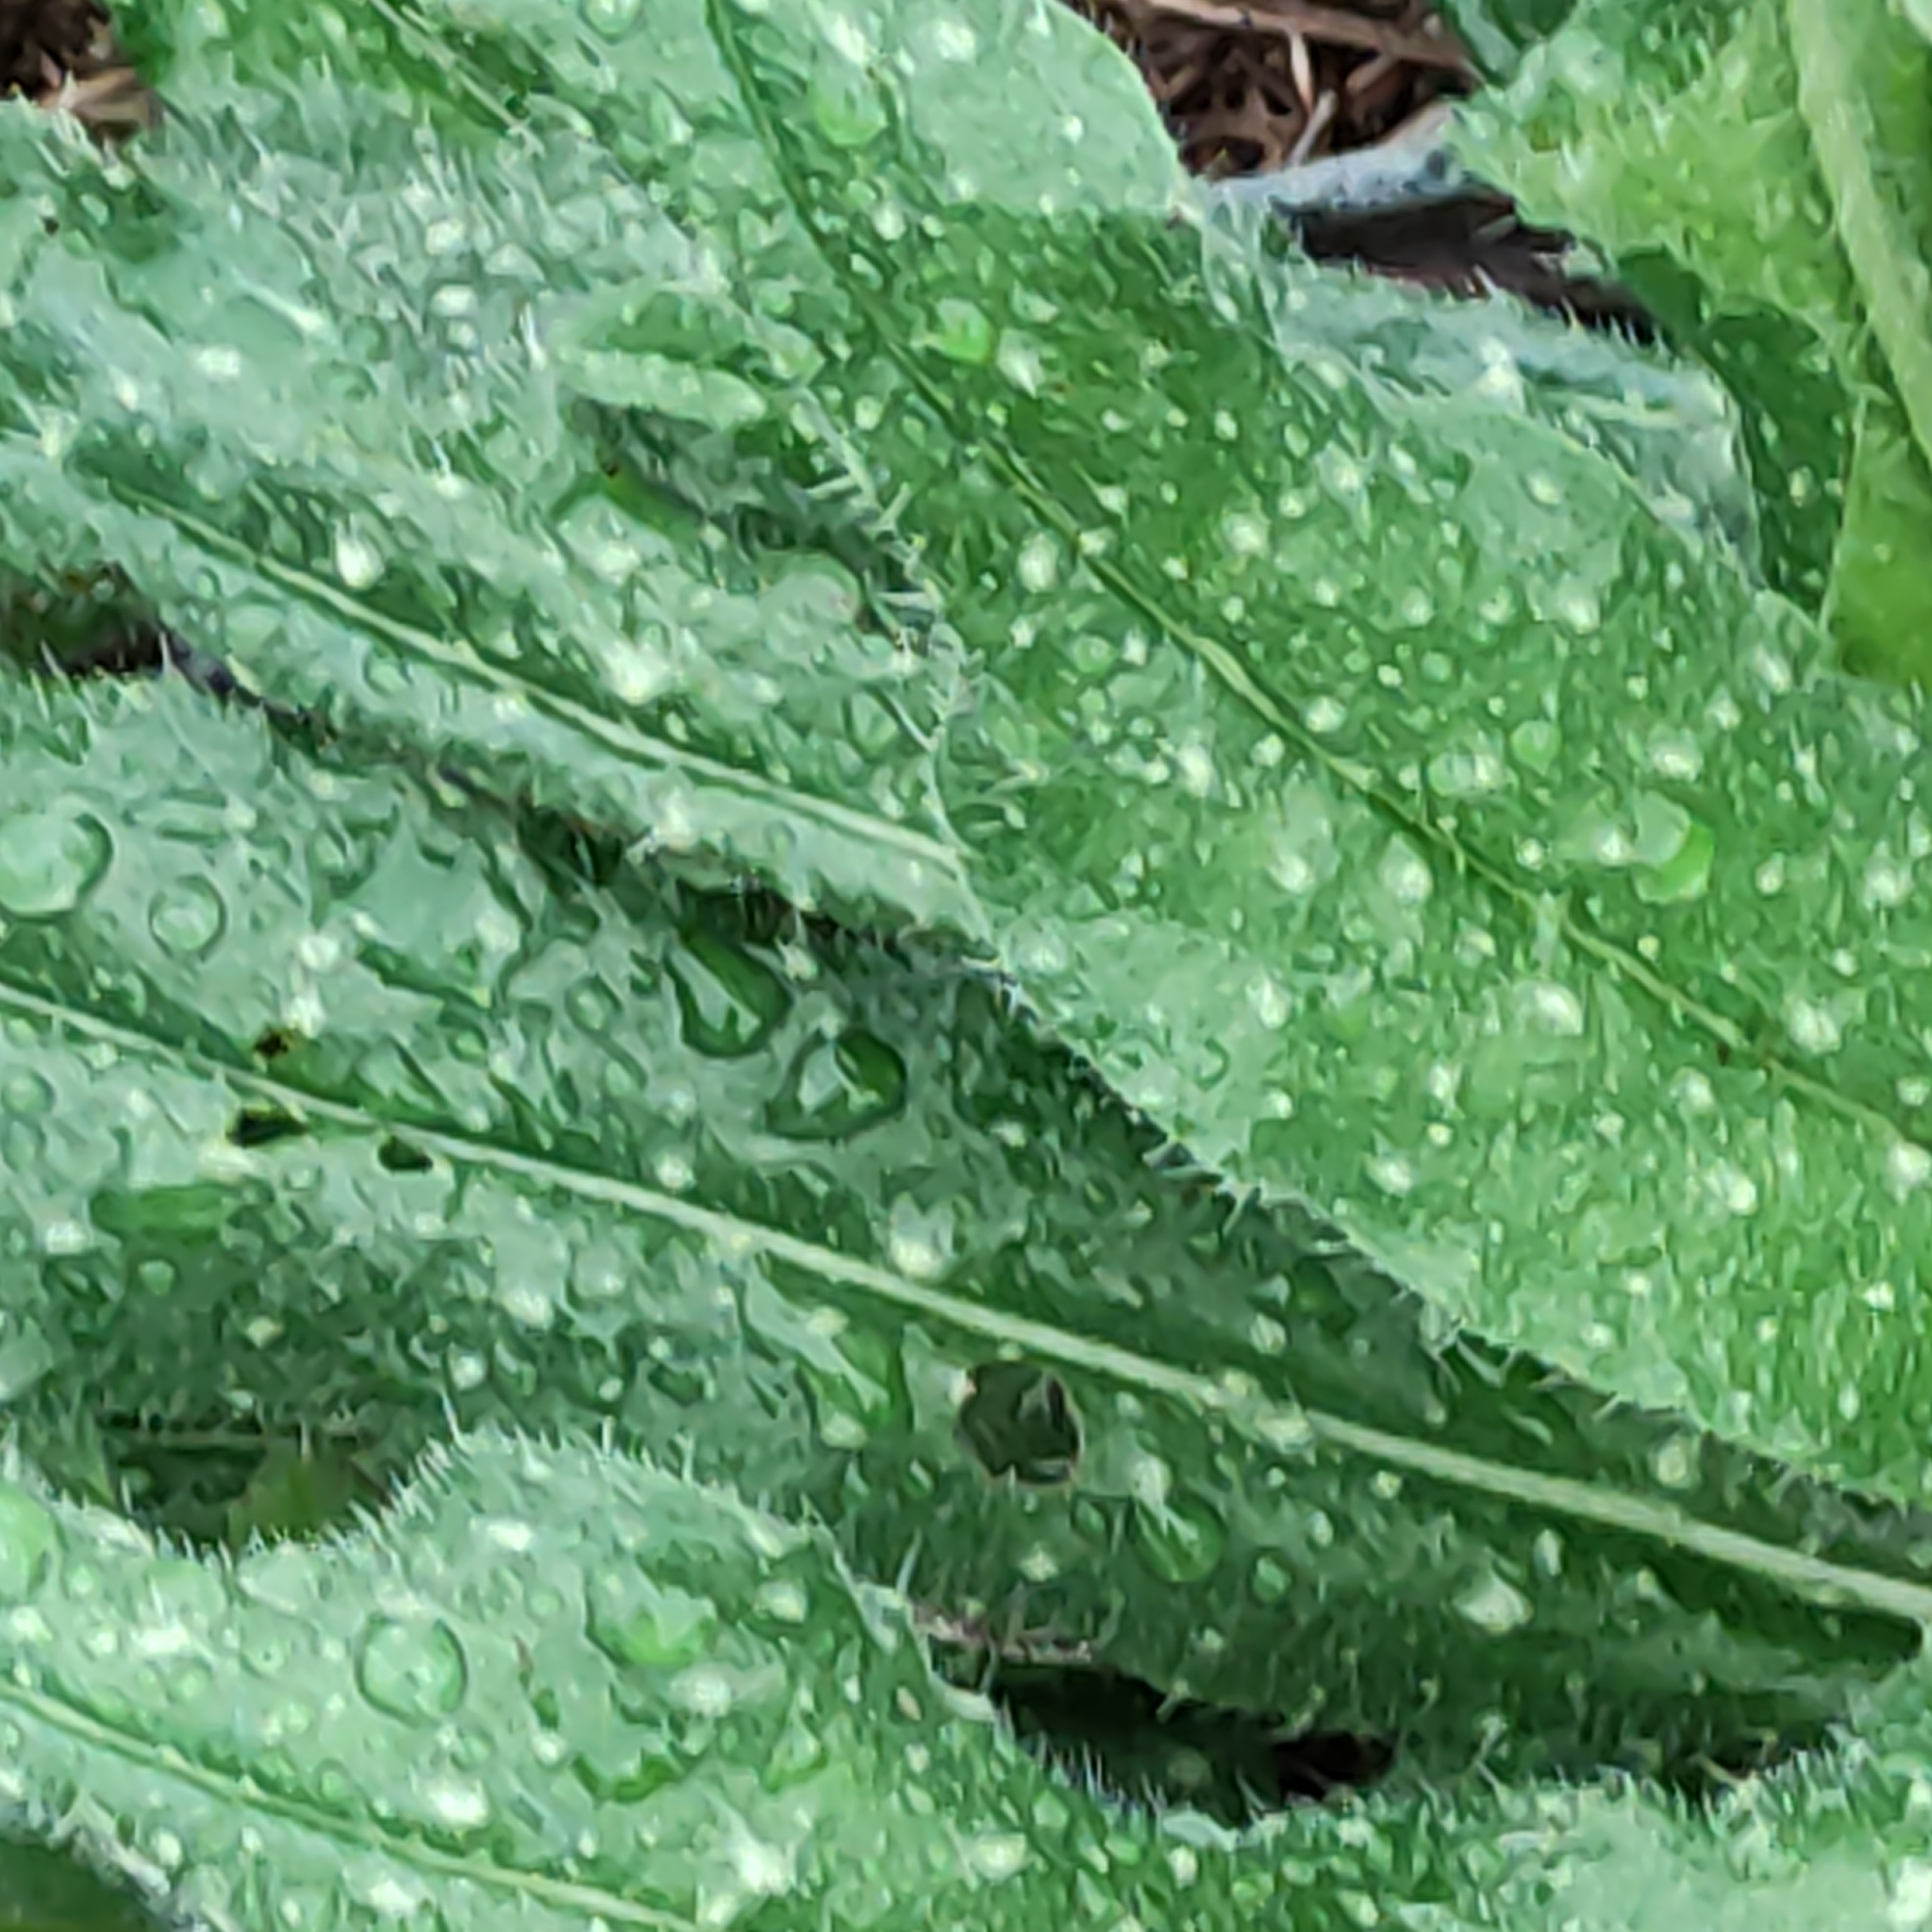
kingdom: Plantae
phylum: Tracheophyta
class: Magnoliopsida
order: Asterales
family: Asteraceae
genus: Helminthotheca
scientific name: Helminthotheca echioides
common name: Ox-tongue
